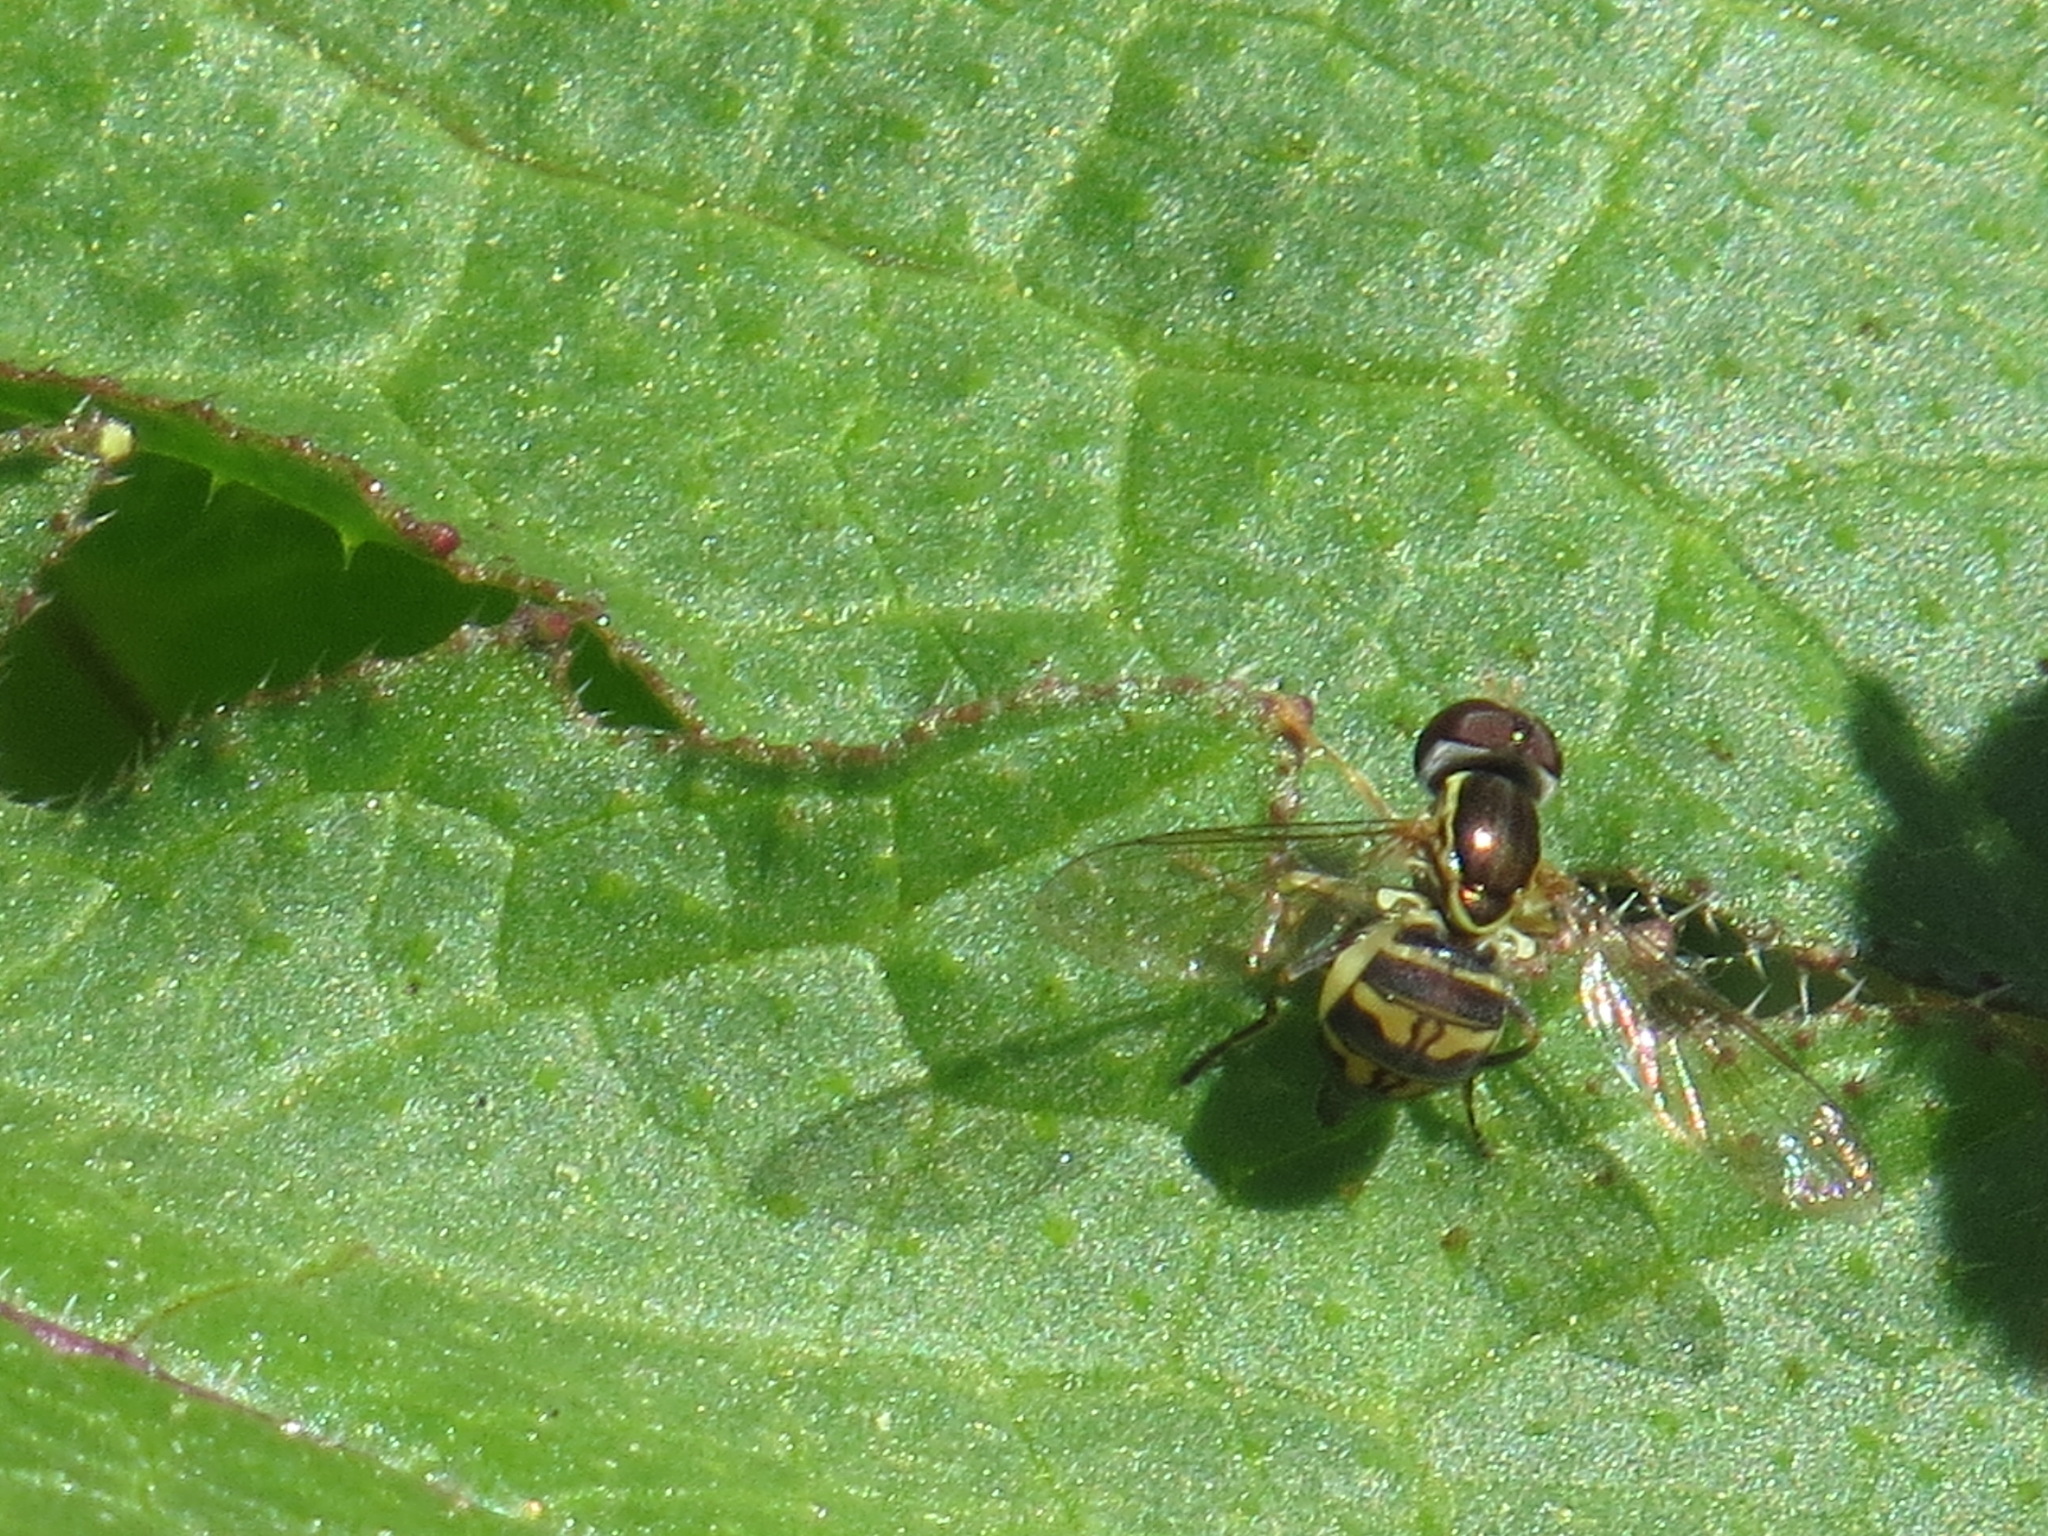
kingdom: Animalia
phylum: Arthropoda
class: Insecta
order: Diptera
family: Syrphidae
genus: Toxomerus
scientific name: Toxomerus occidentalis
